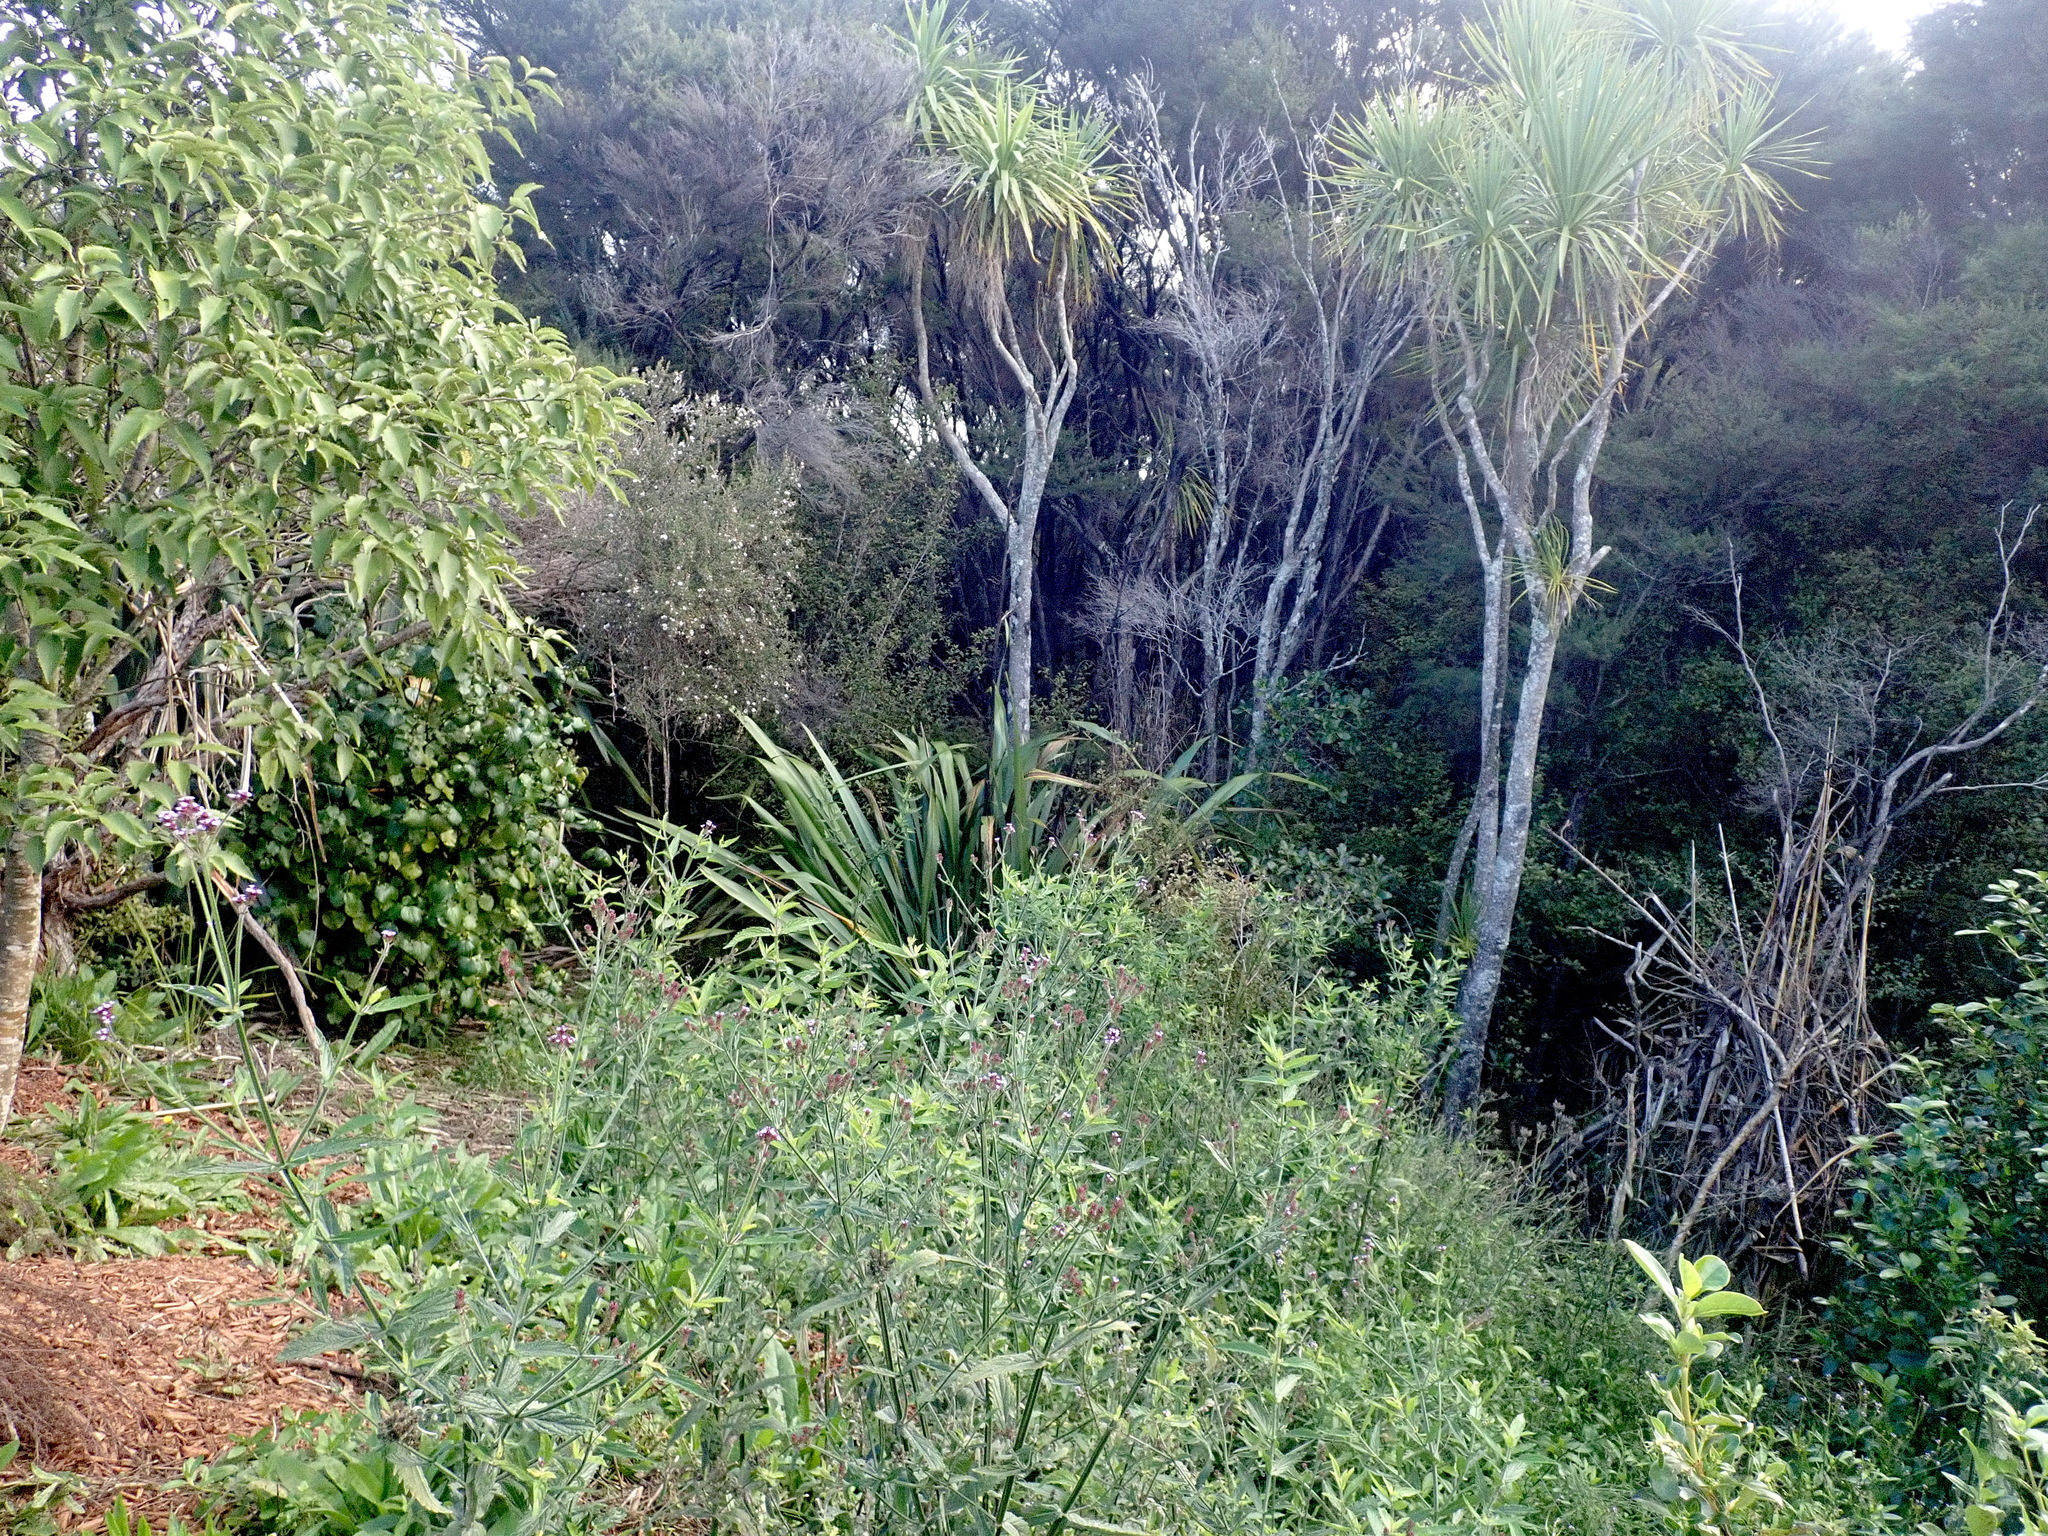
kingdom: Plantae
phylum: Tracheophyta
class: Magnoliopsida
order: Lamiales
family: Verbenaceae
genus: Verbena
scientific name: Verbena incompta
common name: Purpletop vervain
